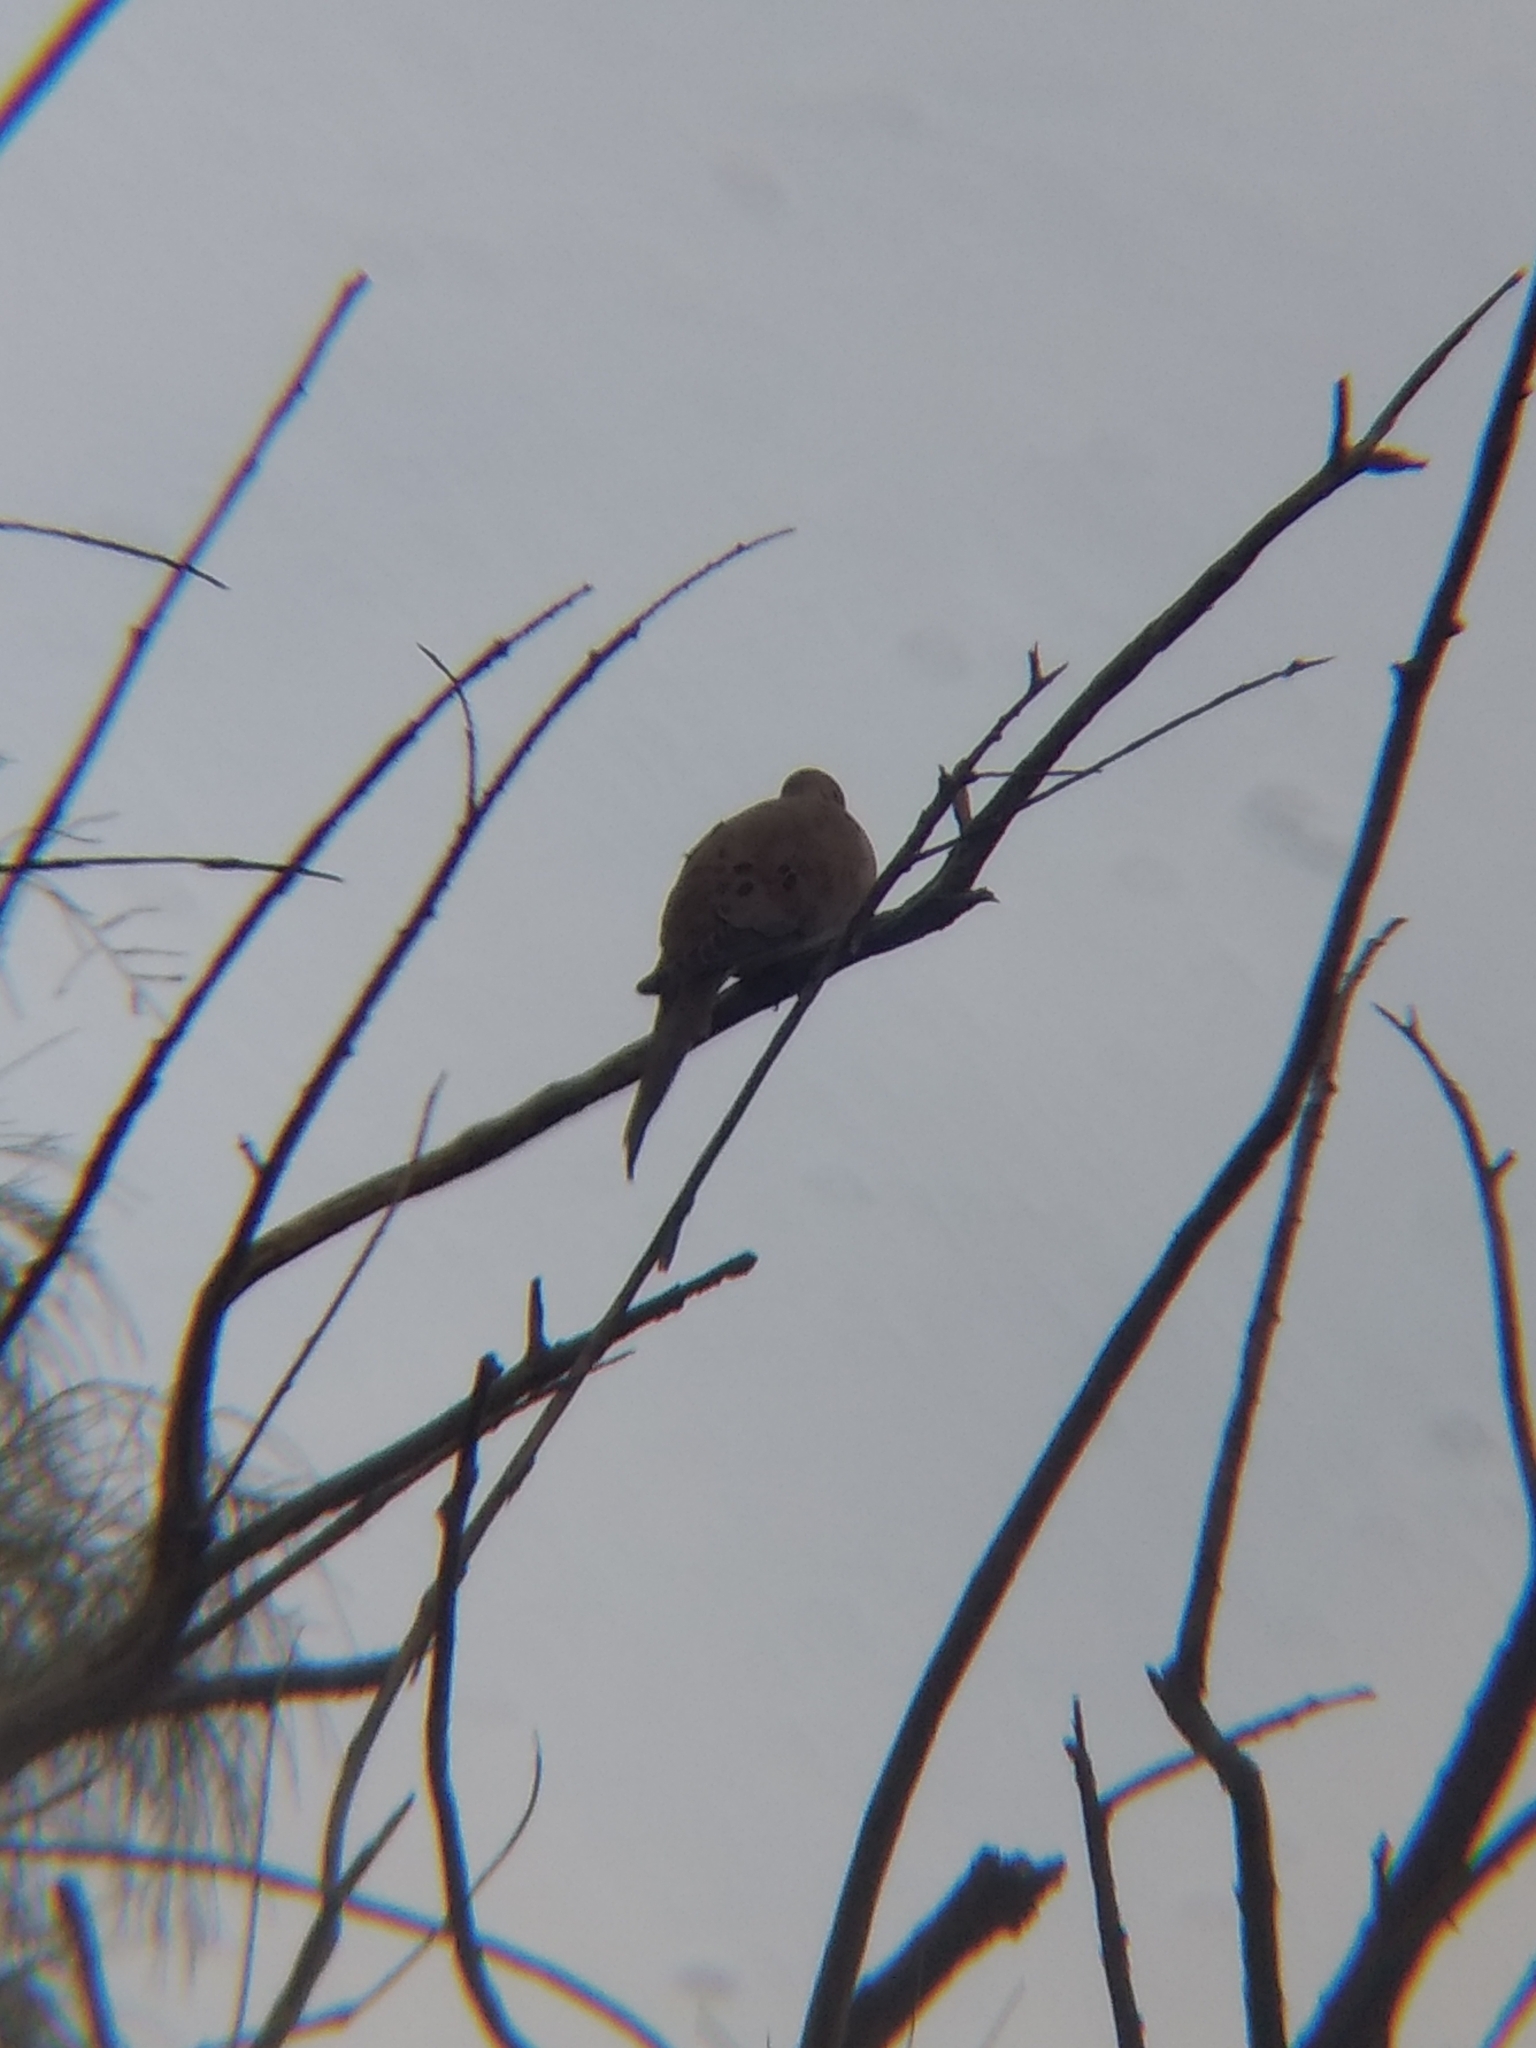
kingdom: Animalia
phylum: Chordata
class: Aves
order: Columbiformes
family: Columbidae
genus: Zenaida
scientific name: Zenaida macroura
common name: Mourning dove
